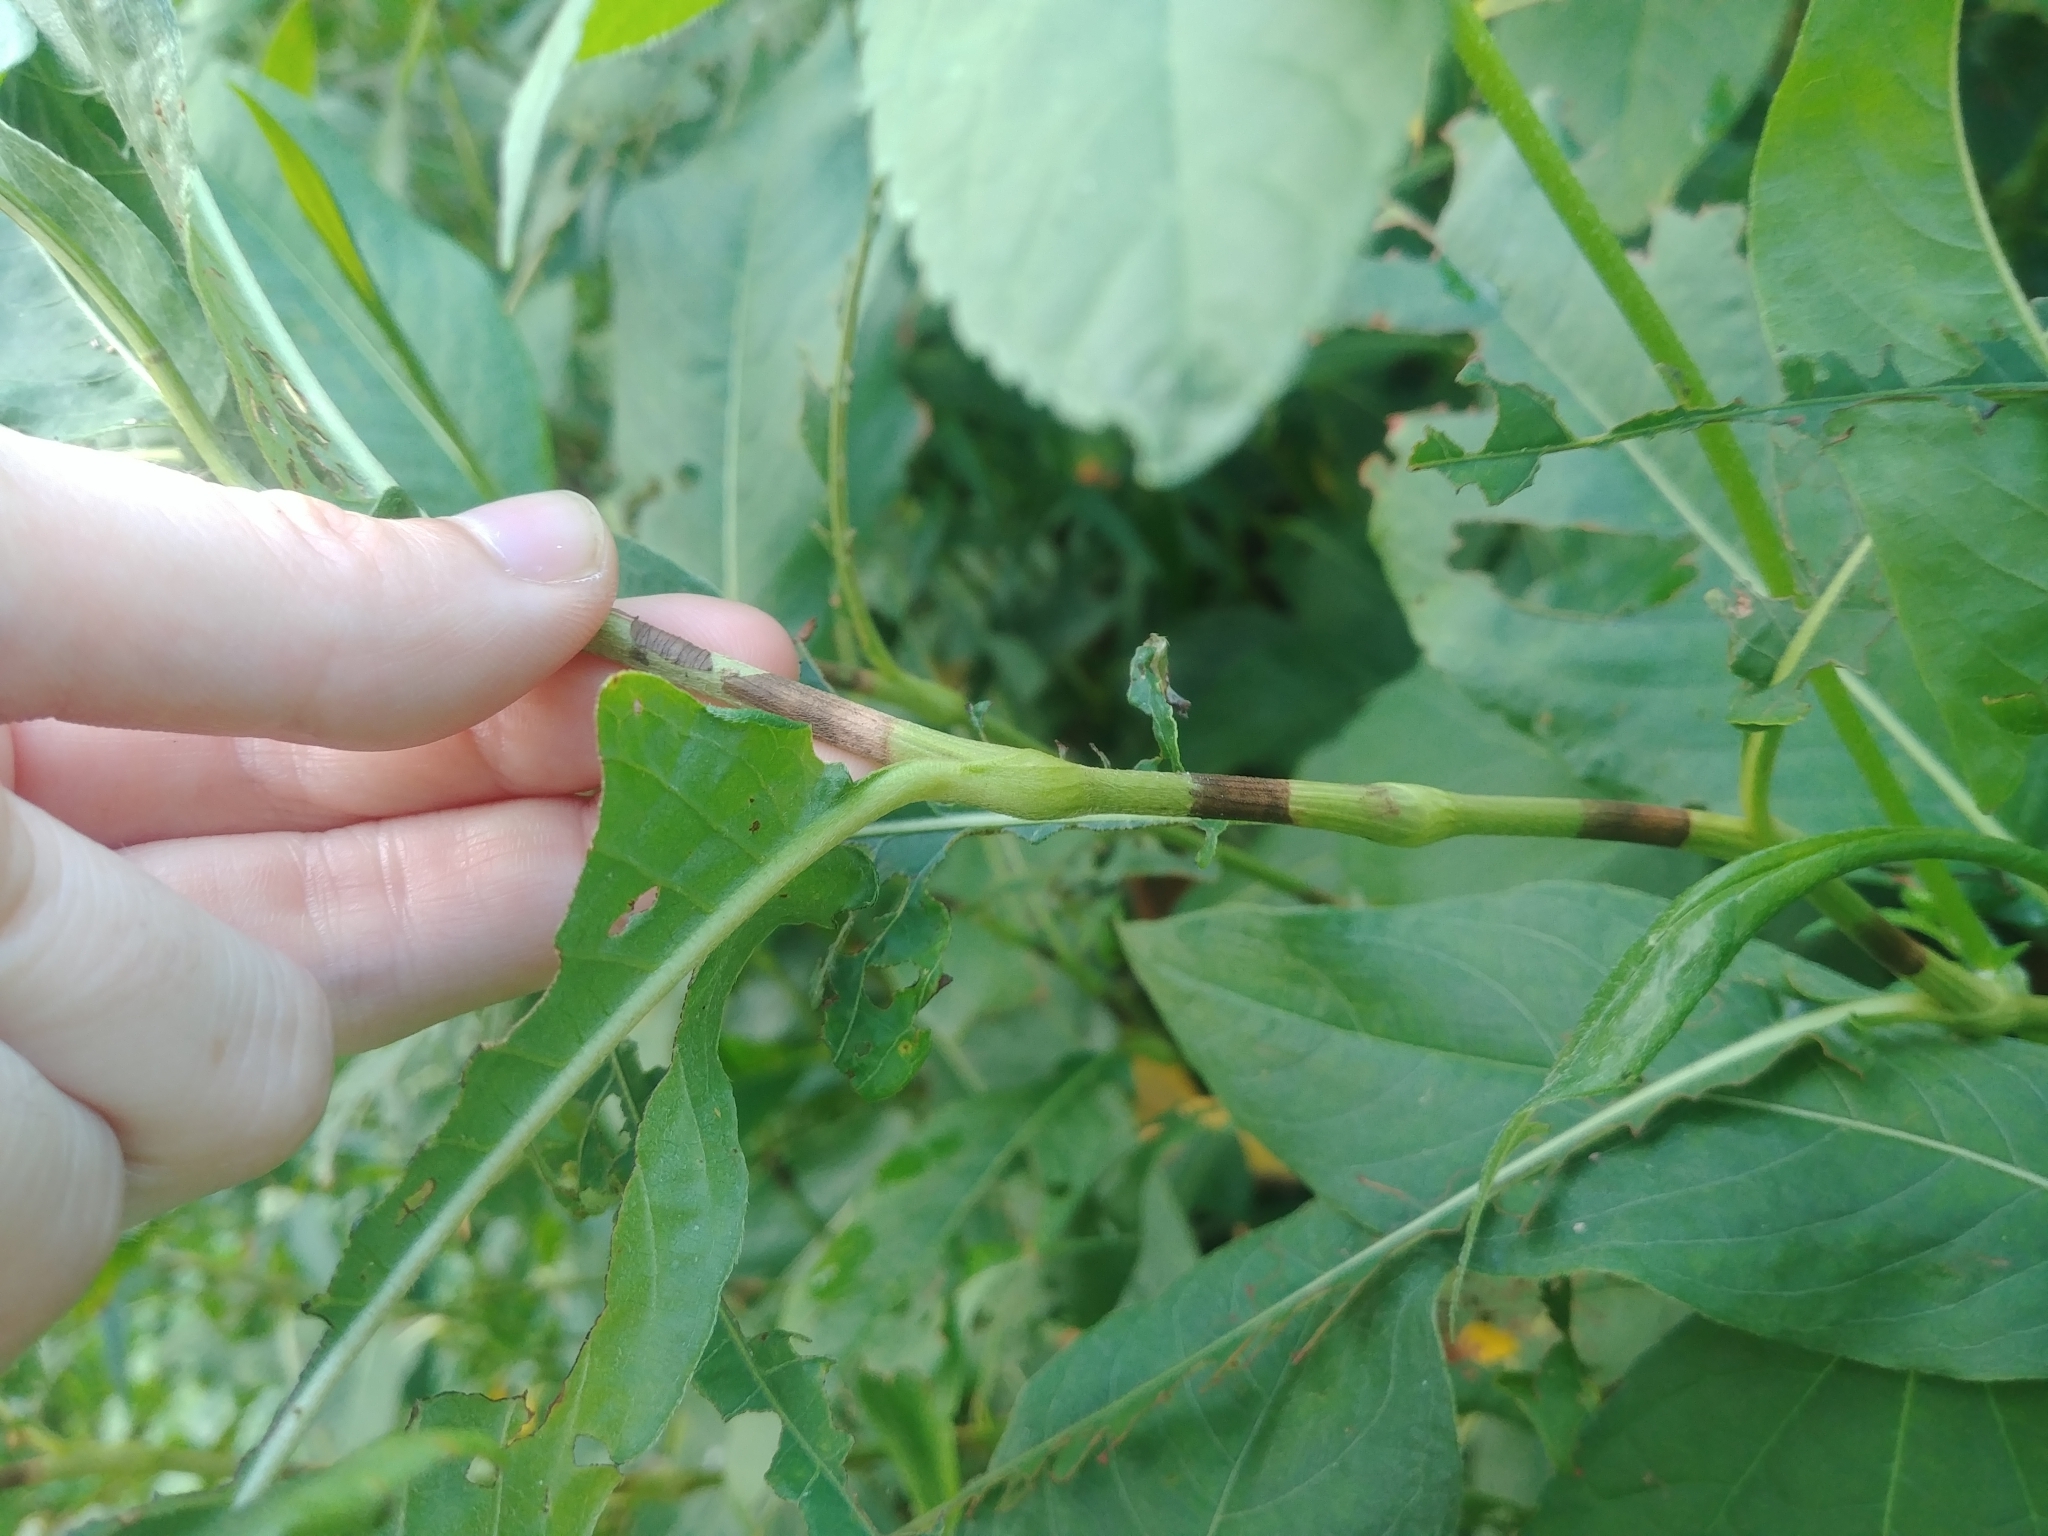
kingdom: Plantae
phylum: Tracheophyta
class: Magnoliopsida
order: Caryophyllales
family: Polygonaceae
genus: Persicaria
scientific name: Persicaria amphibia
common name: Amphibious bistort
